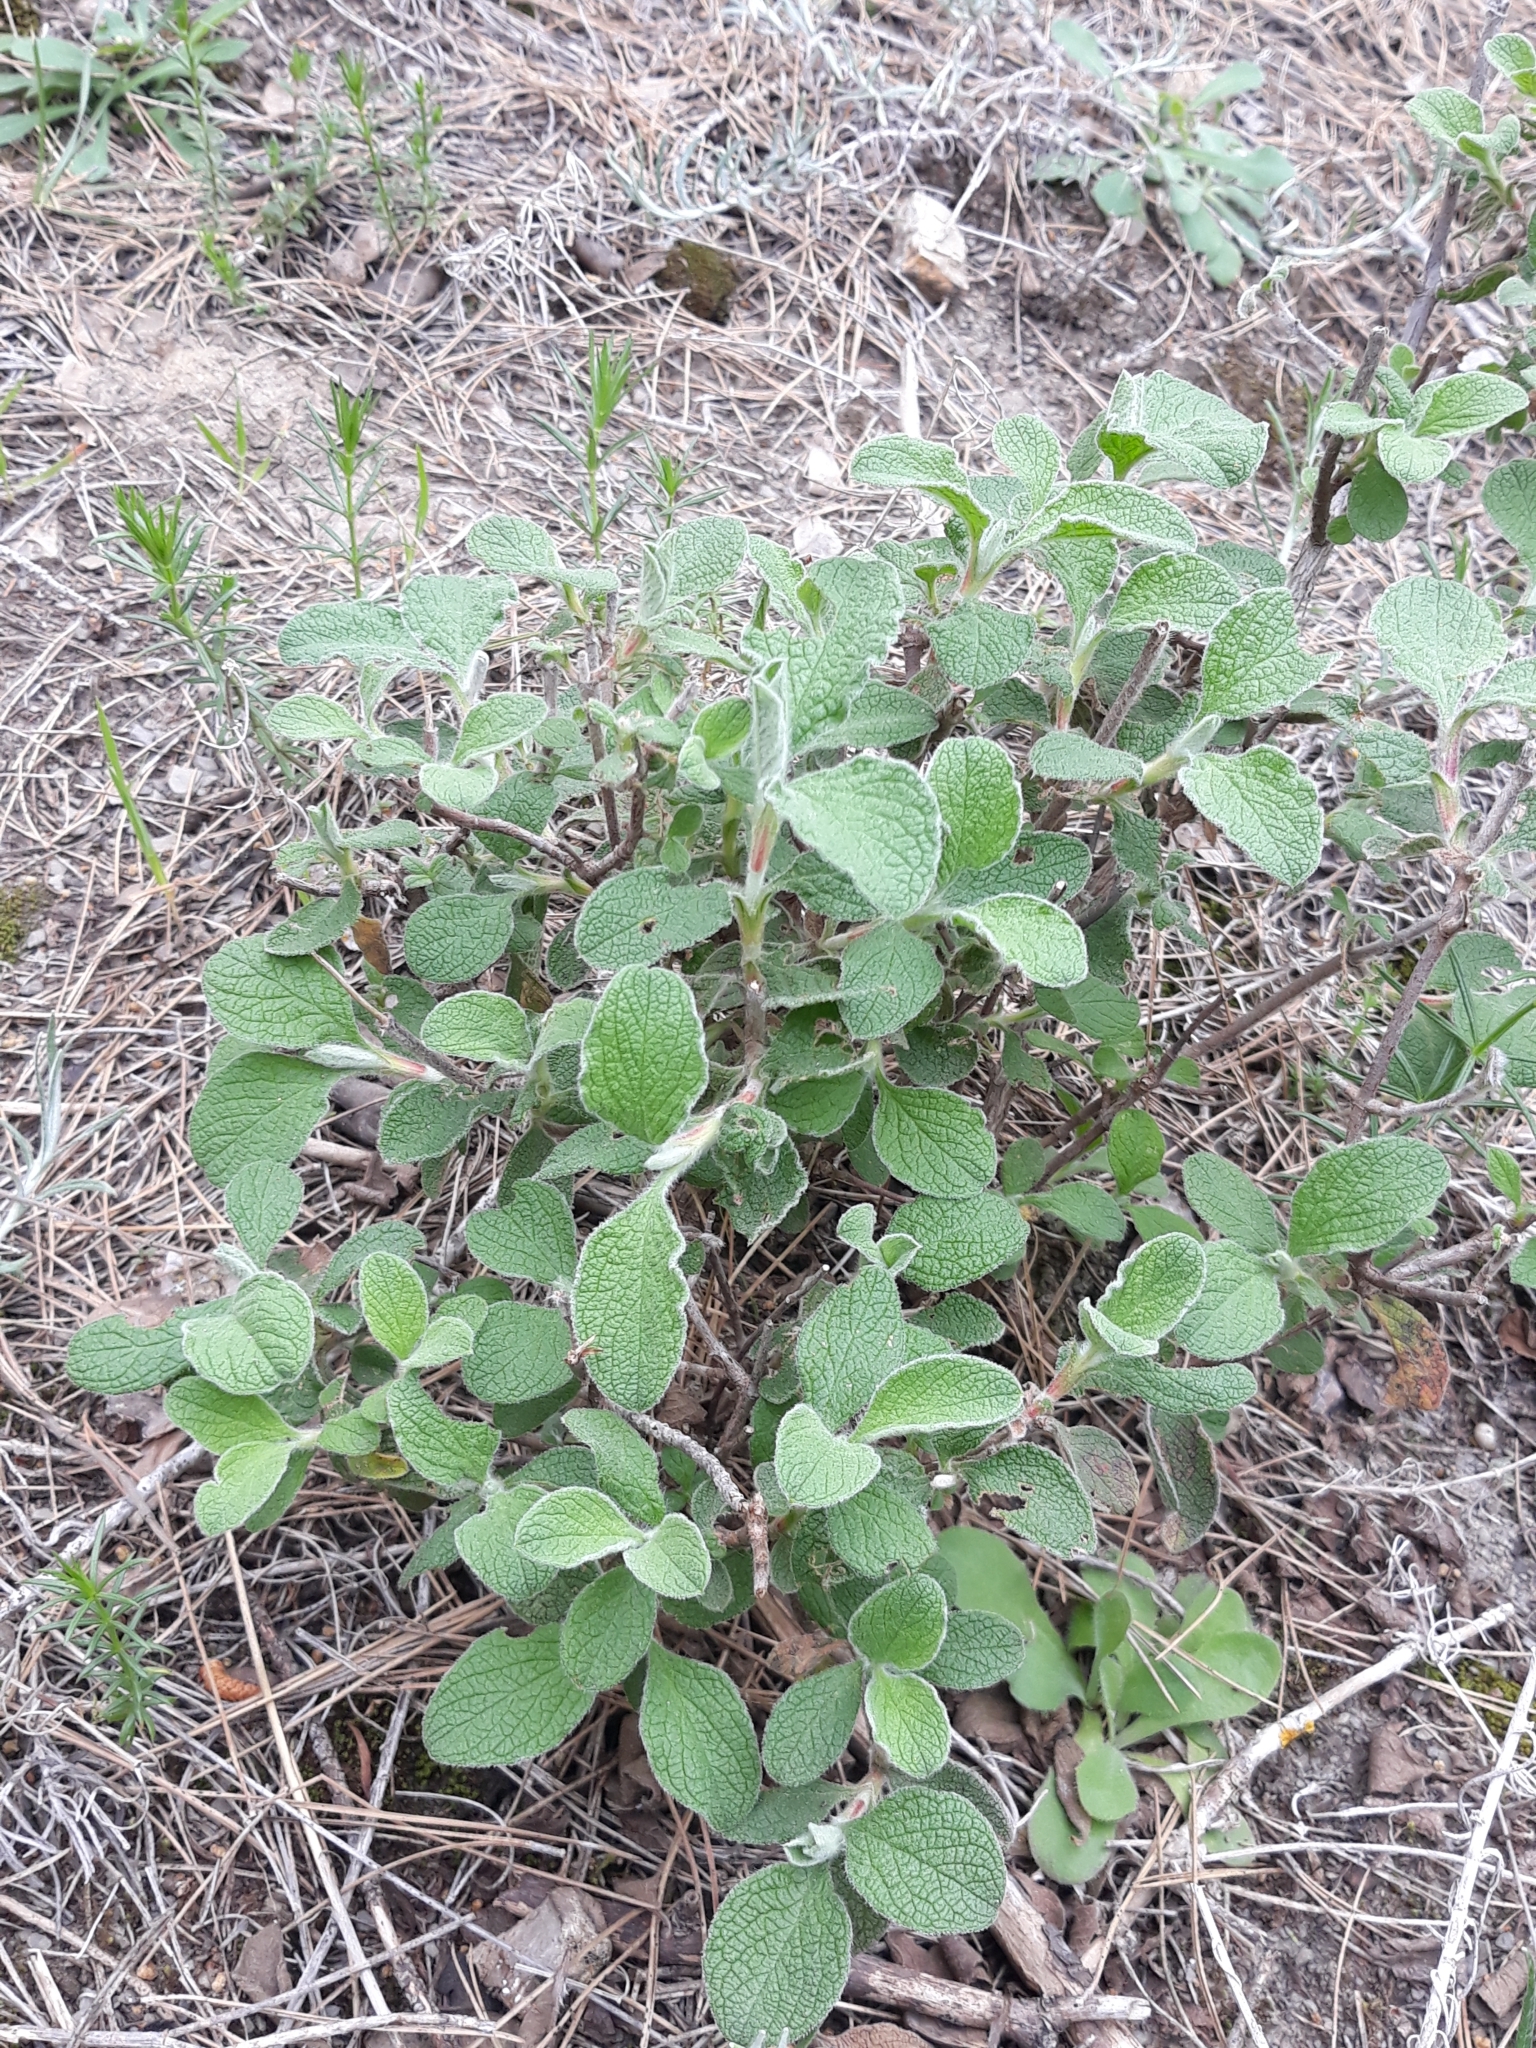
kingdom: Plantae
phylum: Tracheophyta
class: Magnoliopsida
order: Malvales
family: Cistaceae
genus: Cistus
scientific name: Cistus creticus
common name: Cretan rockrose
